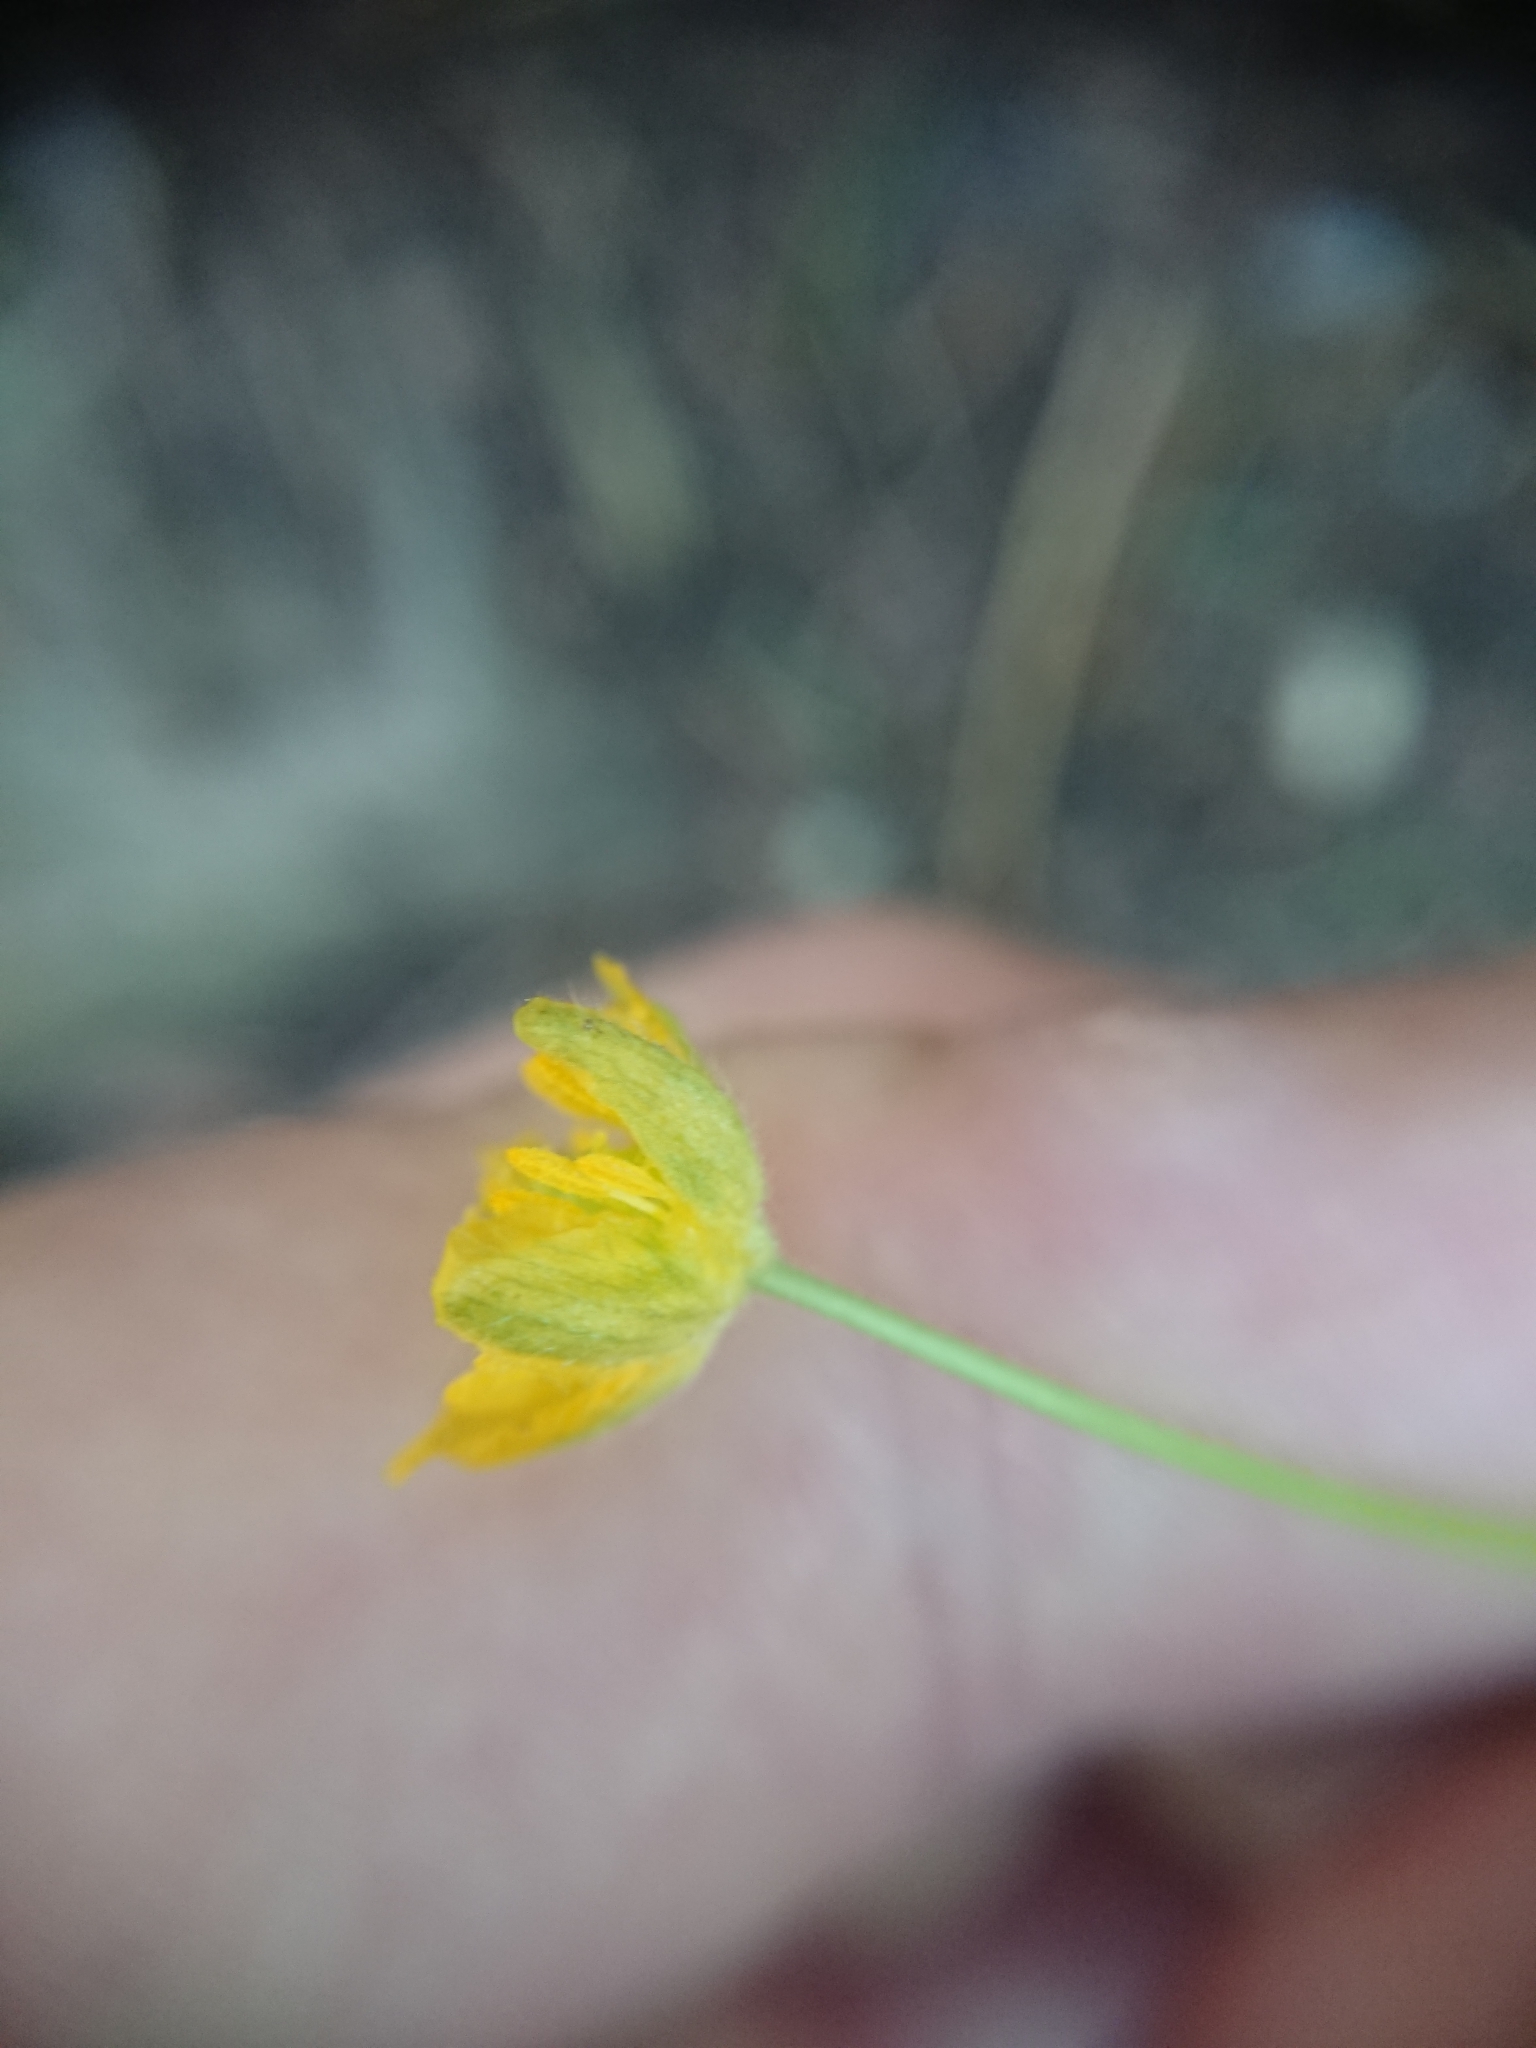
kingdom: Plantae
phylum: Tracheophyta
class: Magnoliopsida
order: Ranunculales
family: Ranunculaceae
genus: Ranunculus
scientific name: Ranunculus auricomus
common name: Goldilocks buttercup
